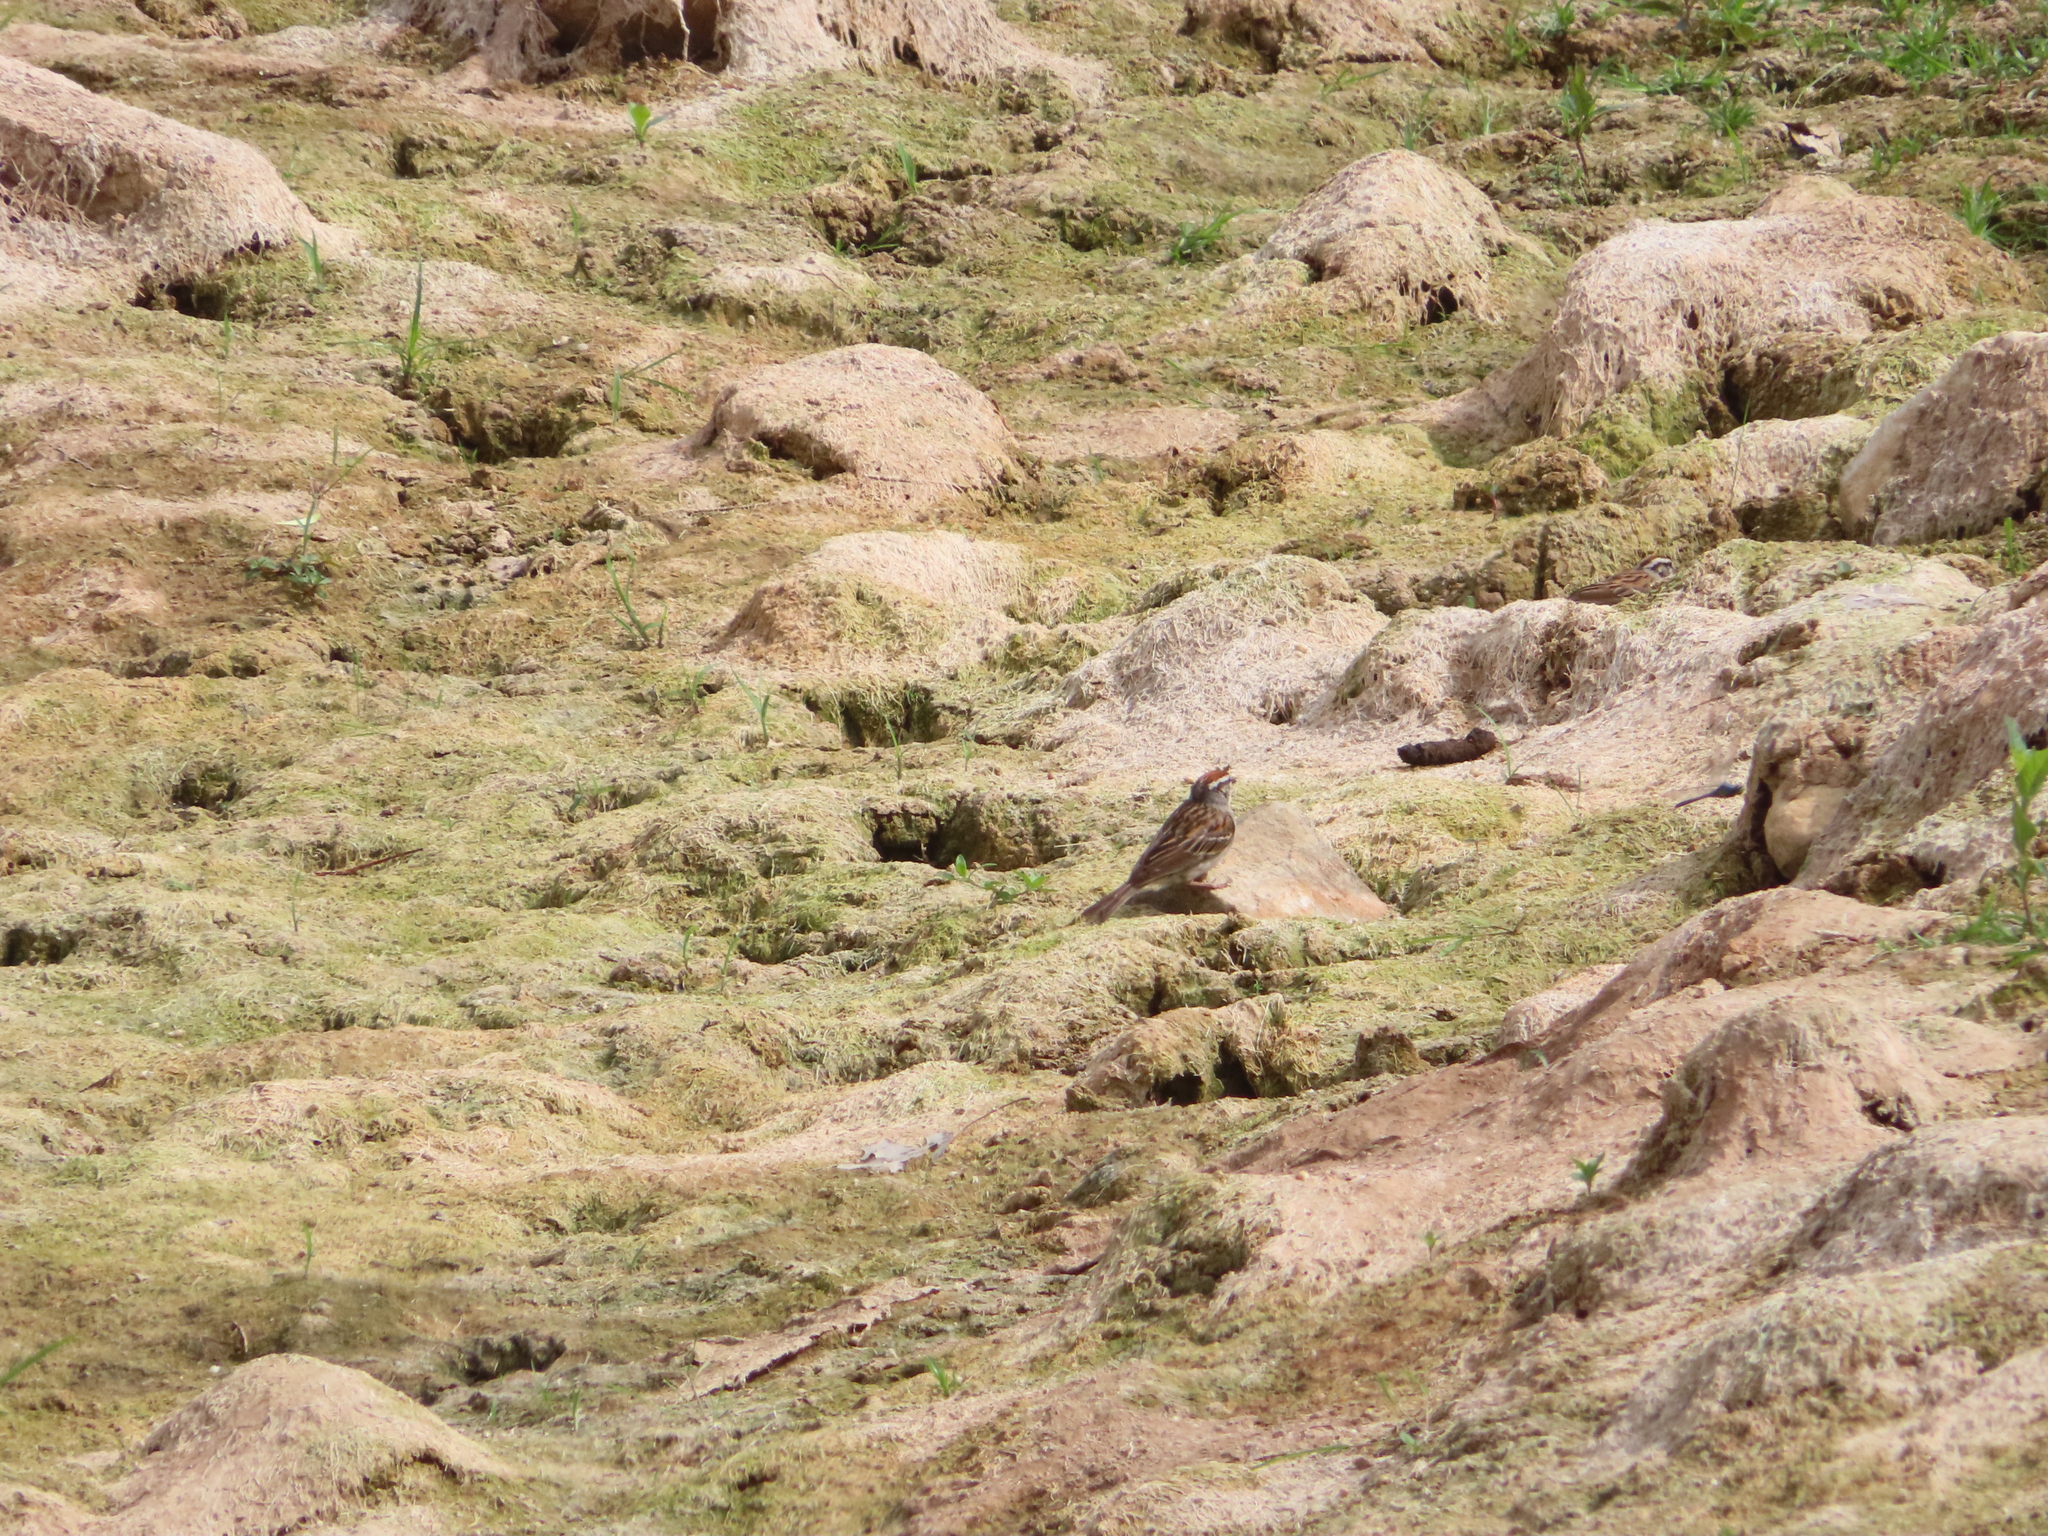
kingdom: Animalia
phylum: Chordata
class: Aves
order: Passeriformes
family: Passerellidae
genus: Spizella
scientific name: Spizella passerina
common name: Chipping sparrow
